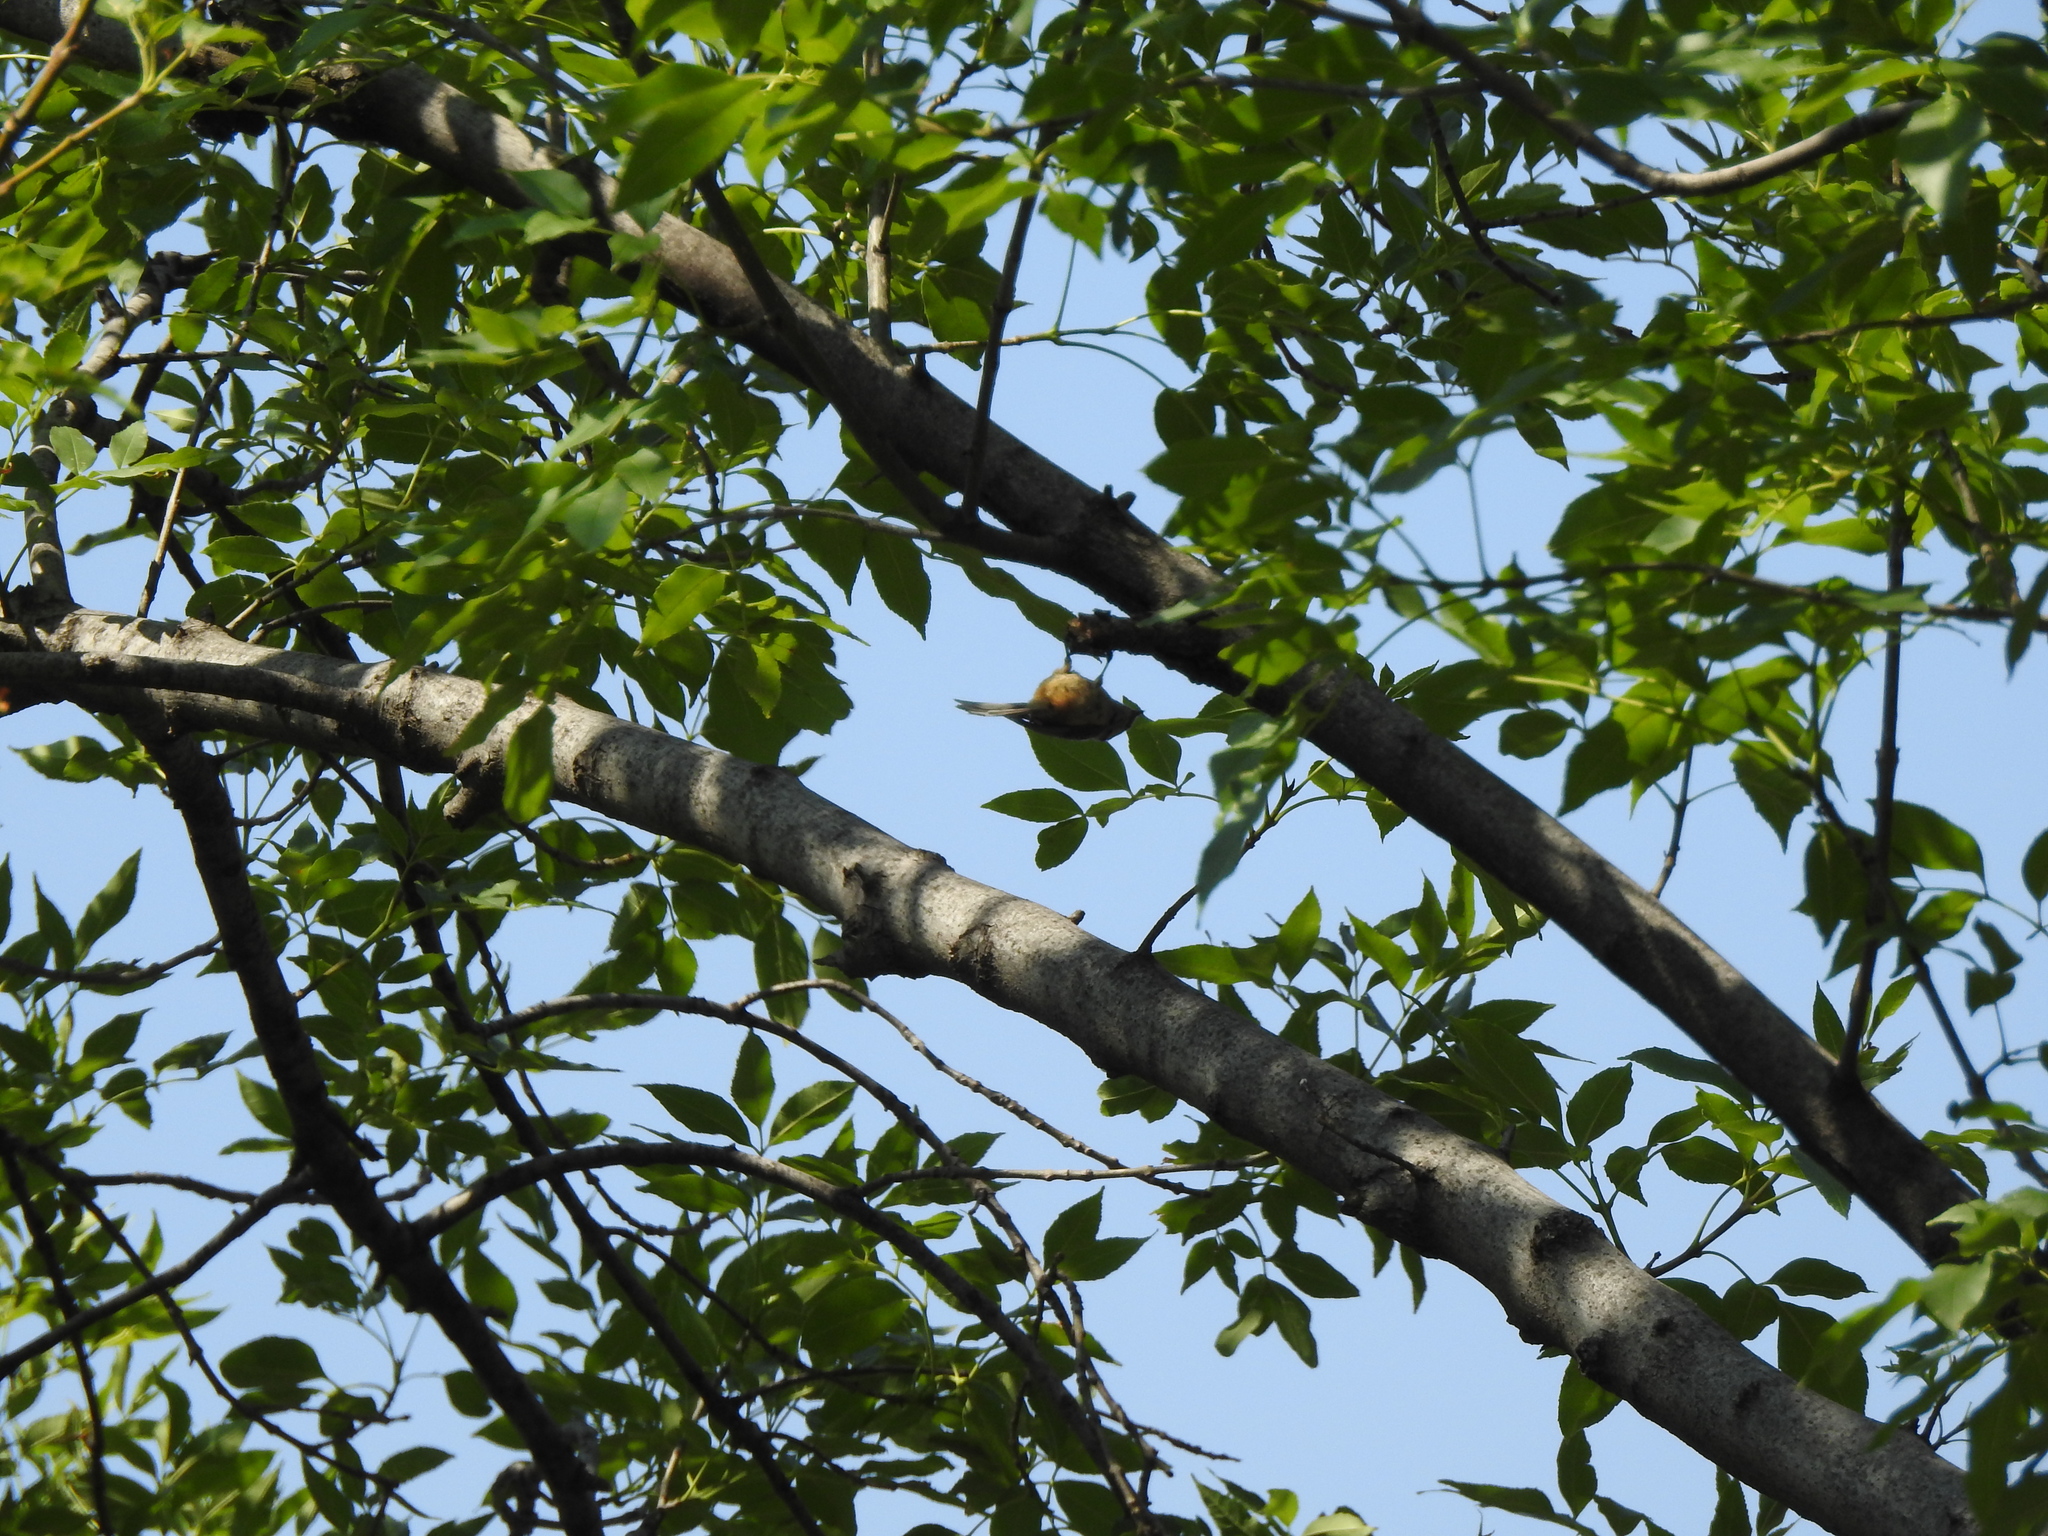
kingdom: Animalia
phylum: Chordata
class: Aves
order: Passeriformes
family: Aegithalidae
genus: Psaltriparus
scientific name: Psaltriparus minimus
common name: American bushtit
